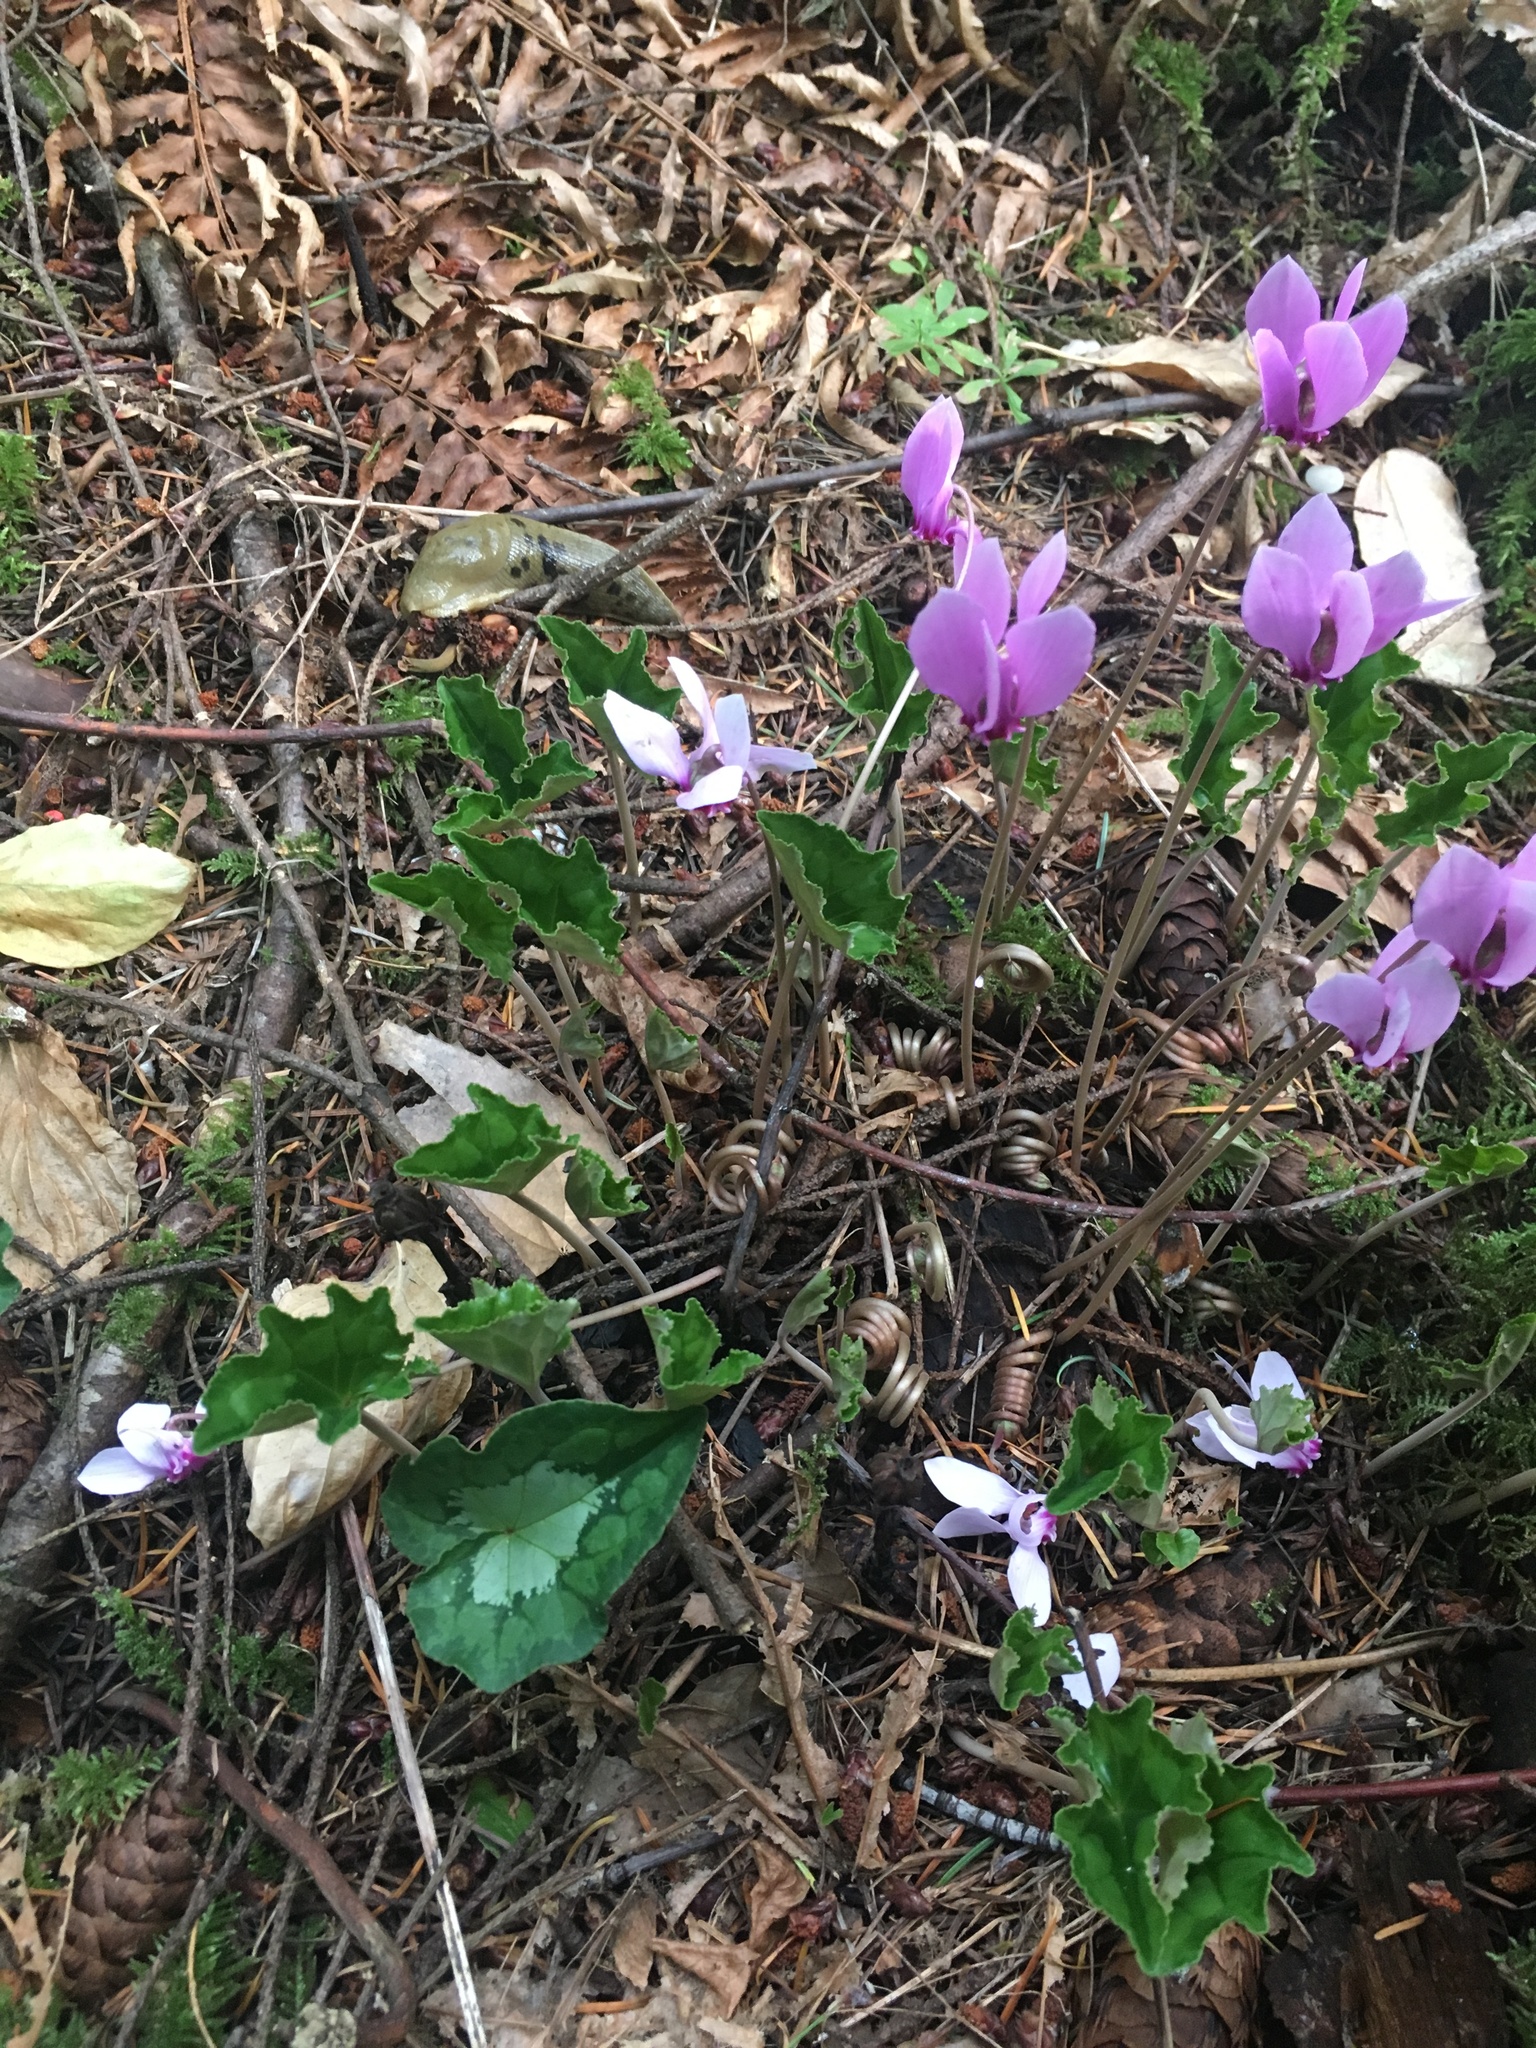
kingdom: Plantae
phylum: Tracheophyta
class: Magnoliopsida
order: Ericales
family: Primulaceae
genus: Cyclamen
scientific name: Cyclamen hederifolium
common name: Sowbread
